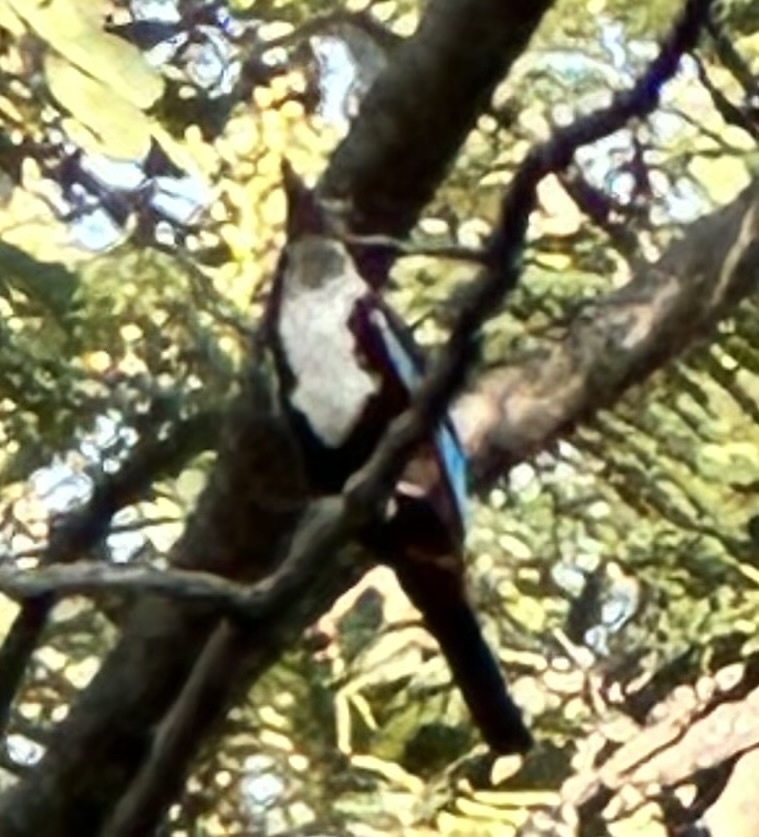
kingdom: Animalia
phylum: Chordata
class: Aves
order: Coraciiformes
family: Alcedinidae
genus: Halcyon
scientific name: Halcyon smyrnensis
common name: White-throated kingfisher
